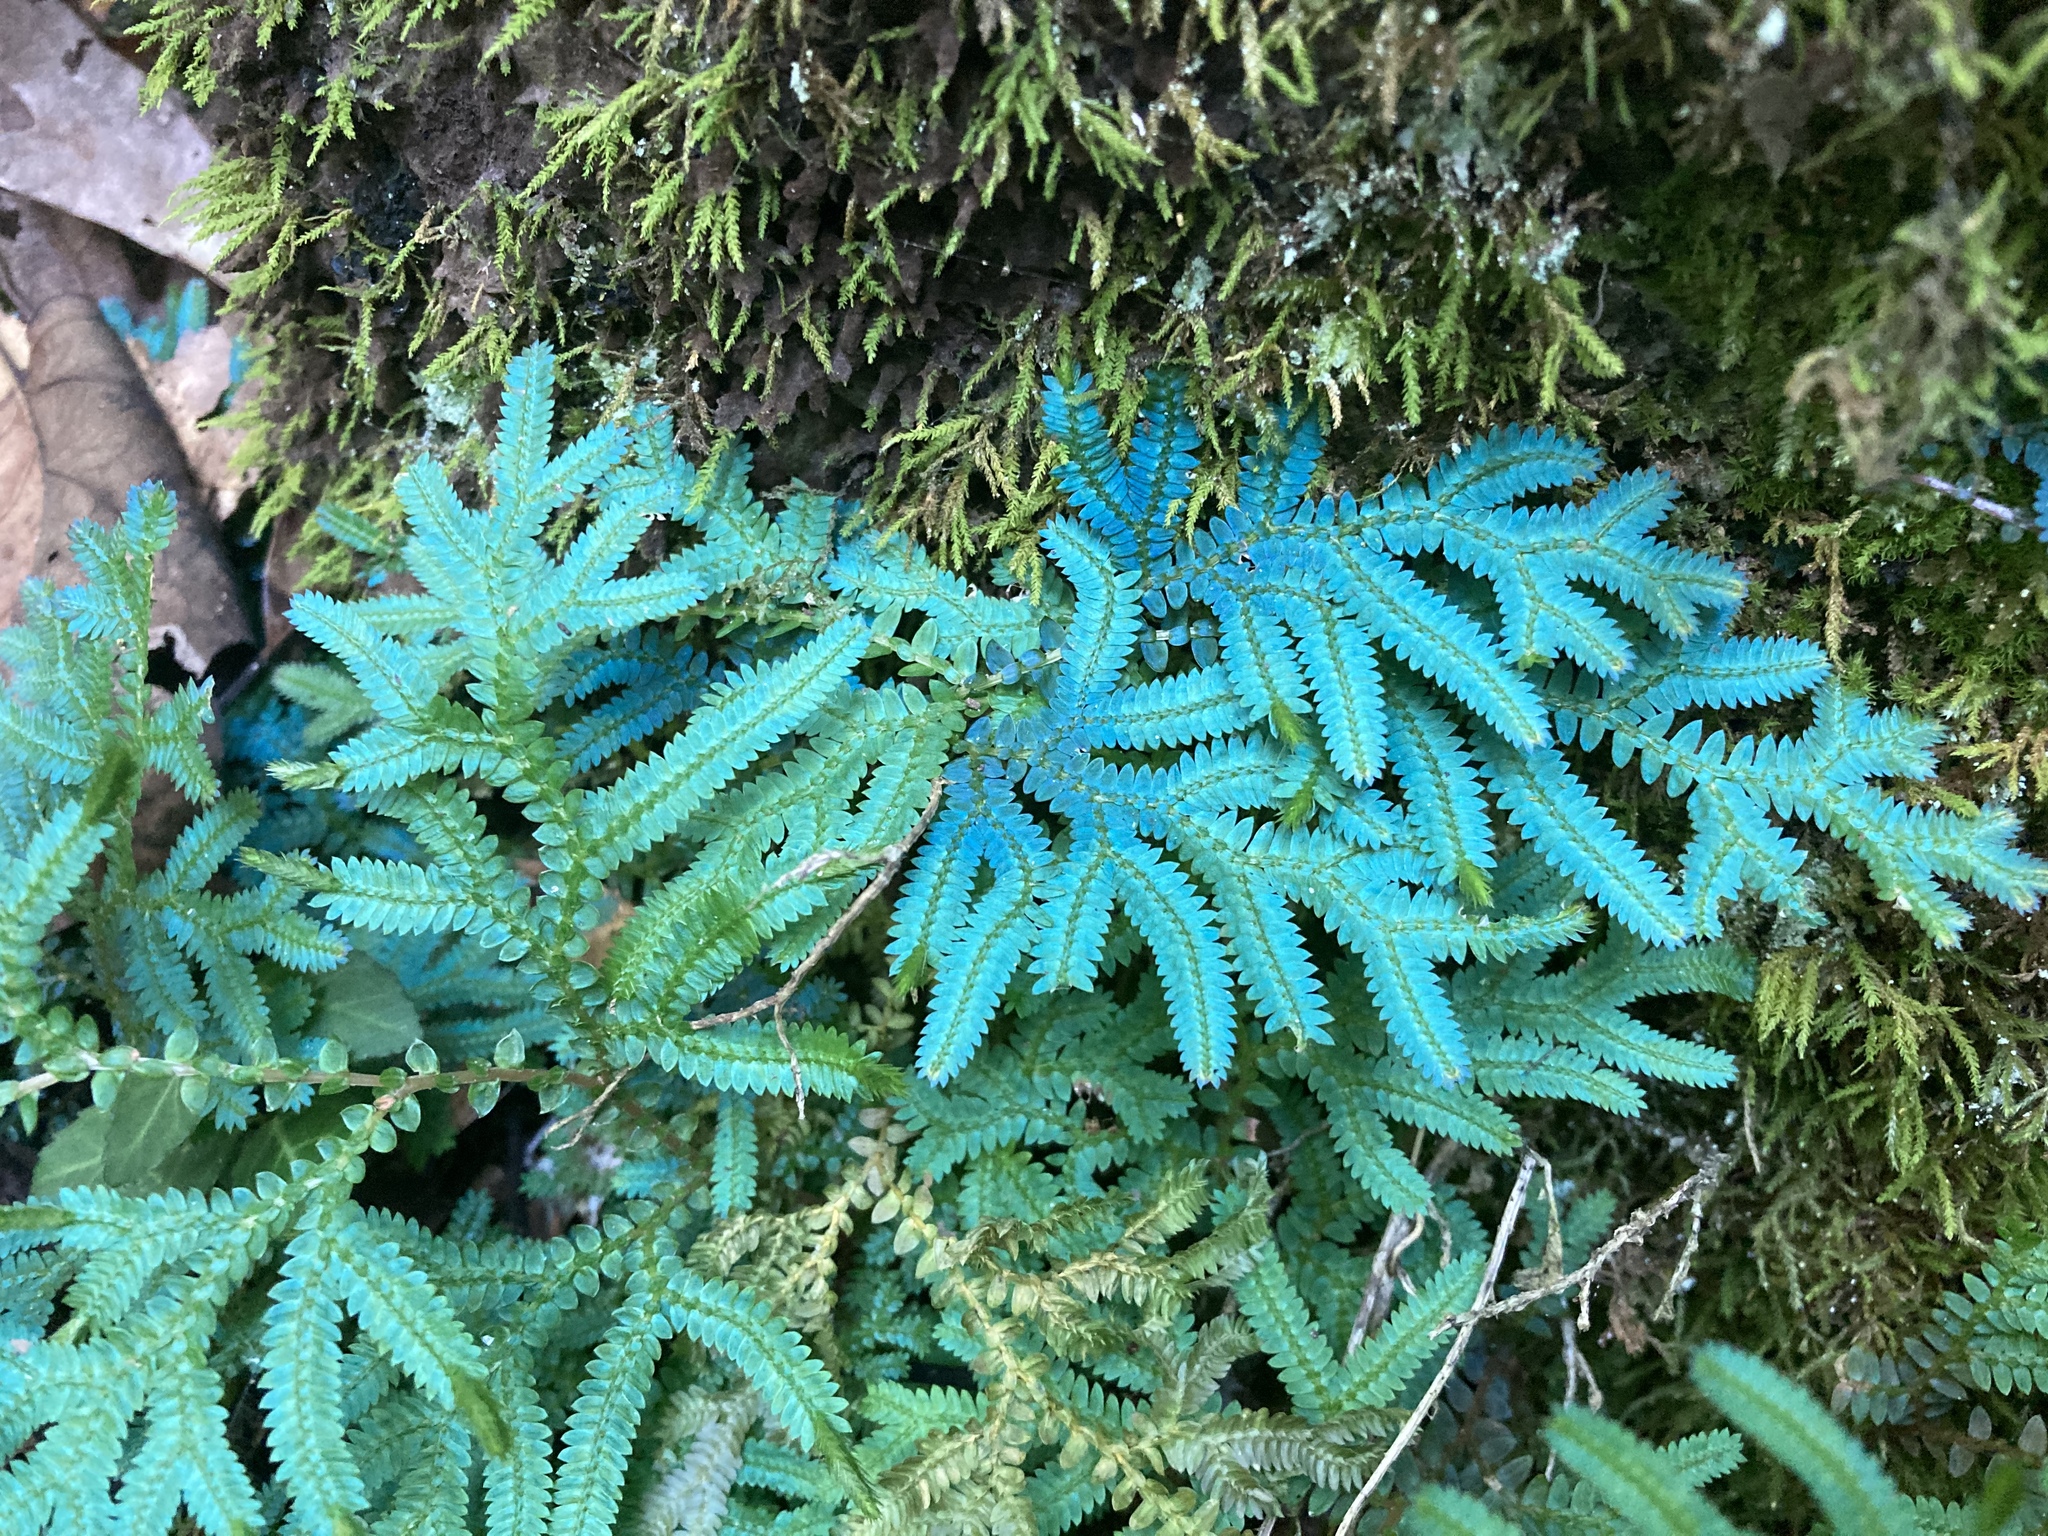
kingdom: Plantae
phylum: Tracheophyta
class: Lycopodiopsida
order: Selaginellales
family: Selaginellaceae
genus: Selaginella
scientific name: Selaginella uncinata
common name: Blue spikemoss
